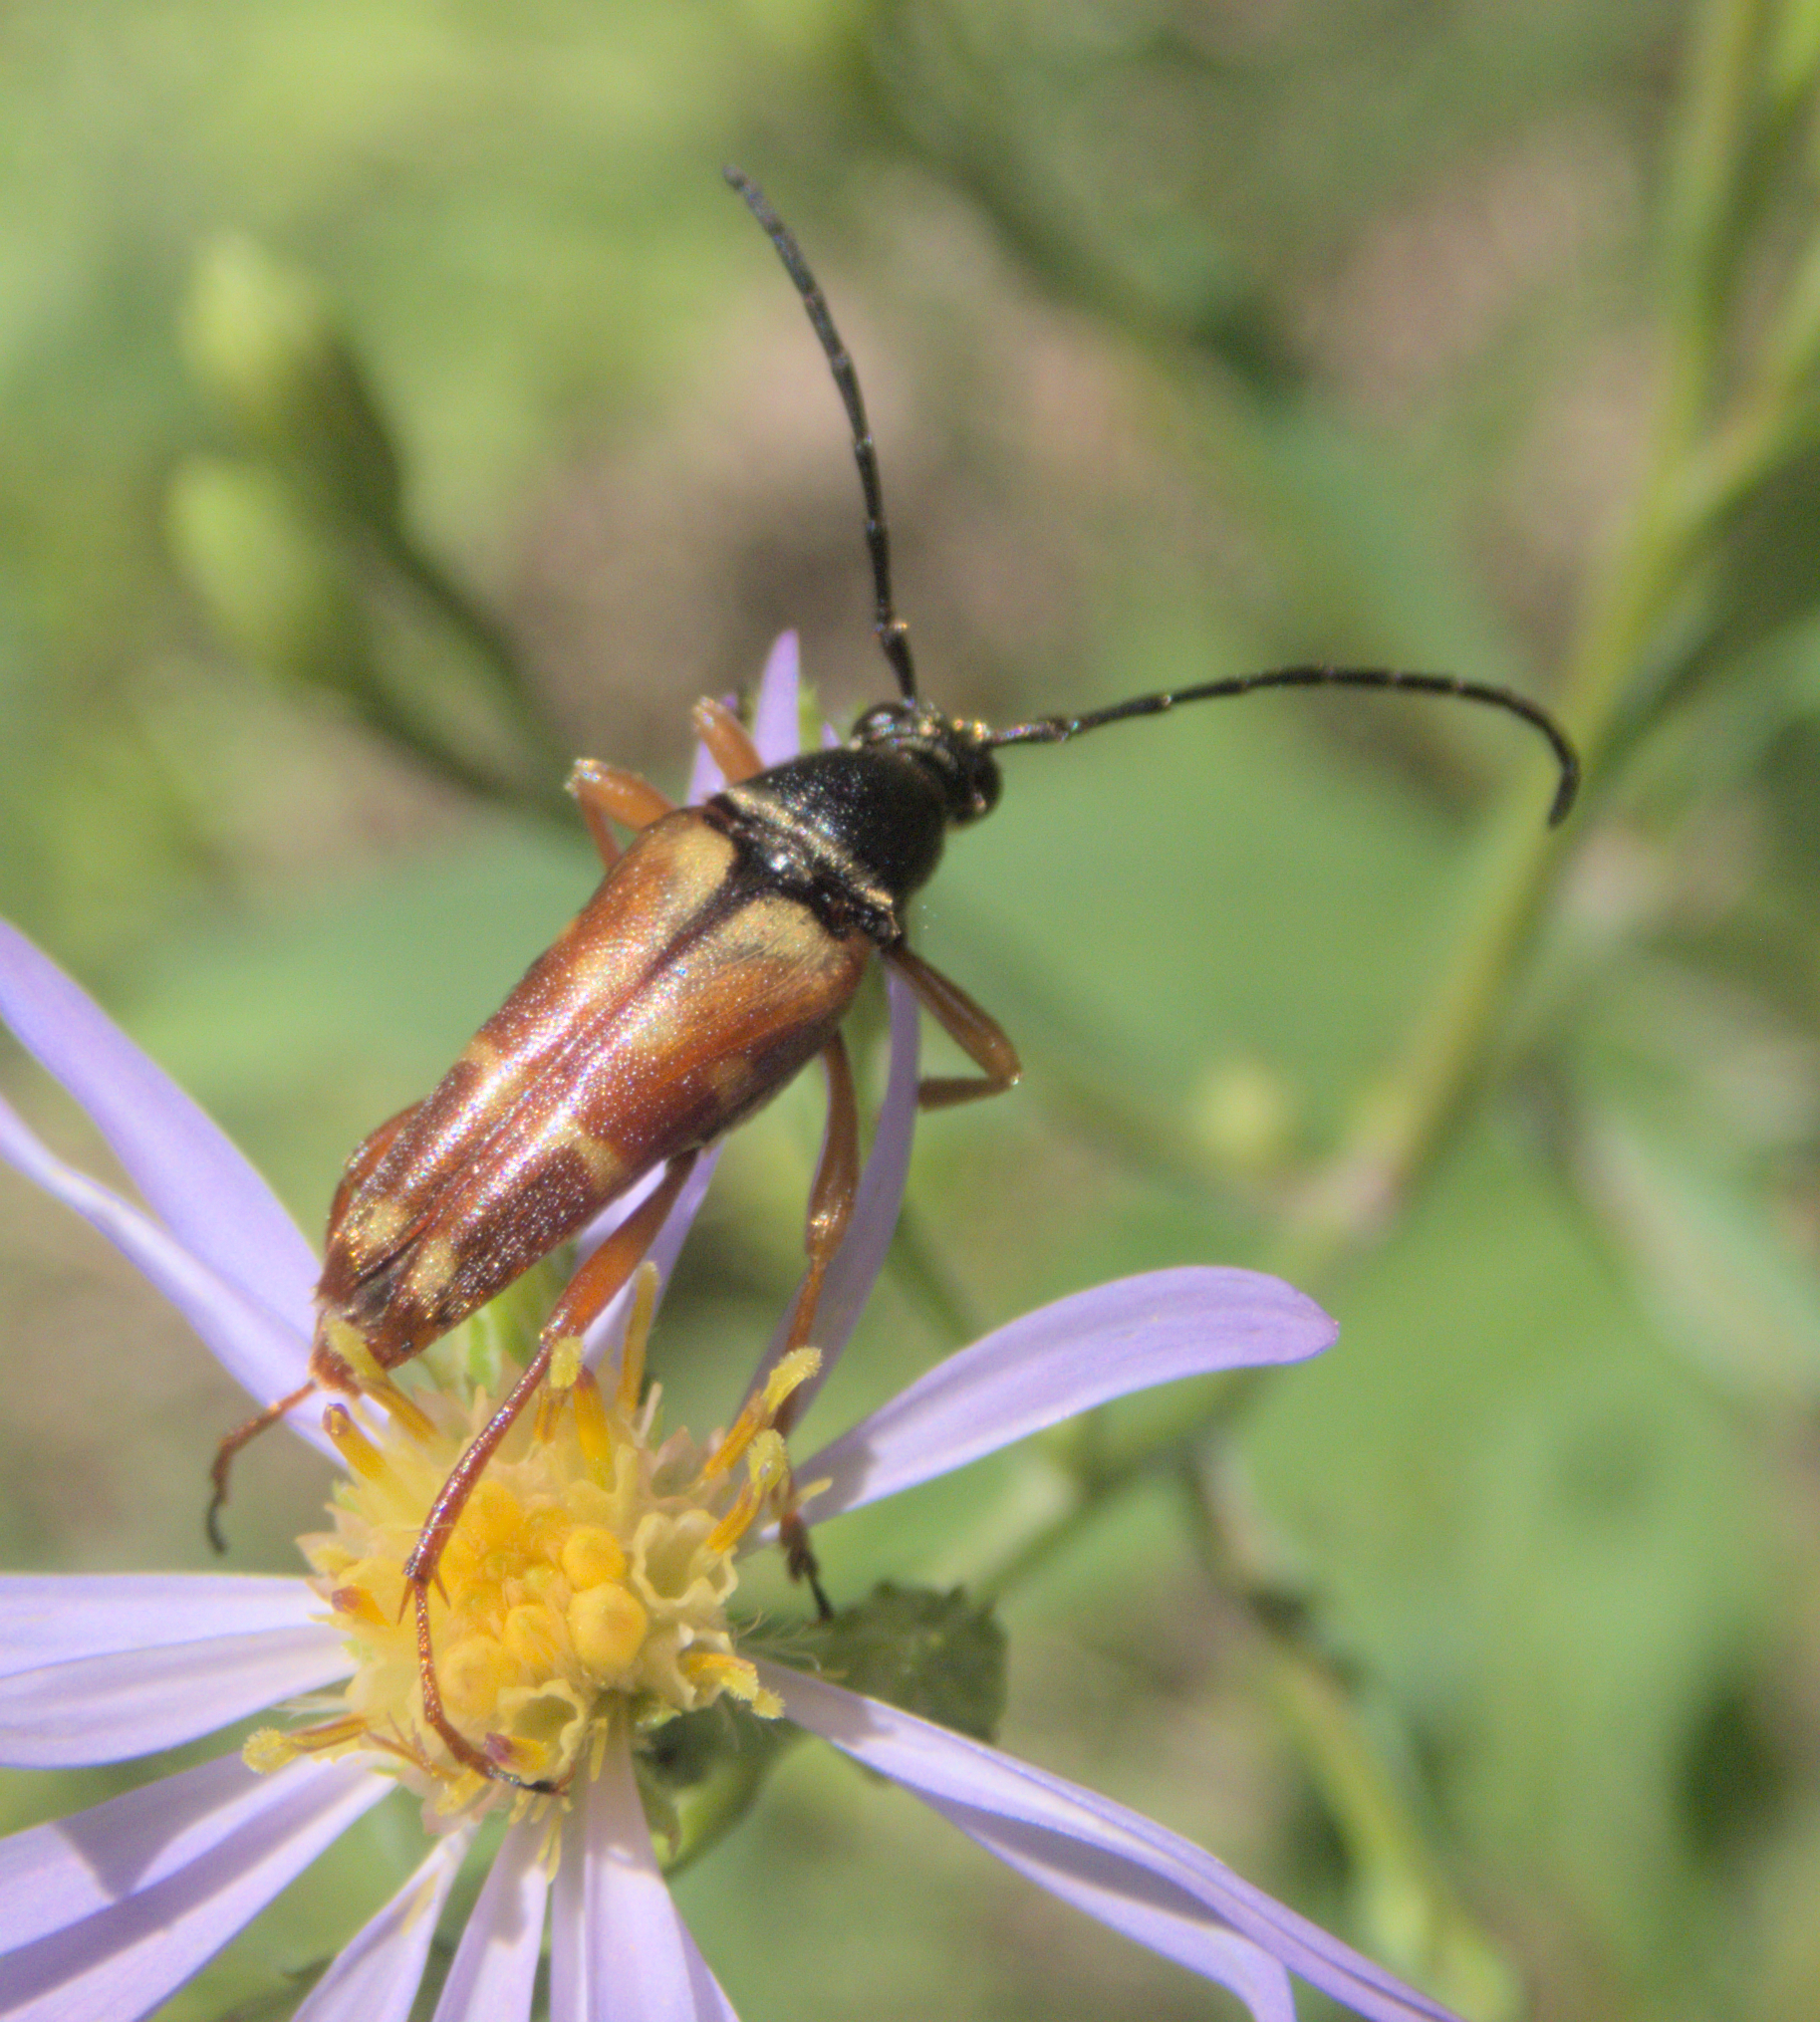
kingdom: Animalia
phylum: Arthropoda
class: Insecta
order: Coleoptera
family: Cerambycidae
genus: Typocerus
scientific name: Typocerus velutinus
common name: Banded longhorn beetle
